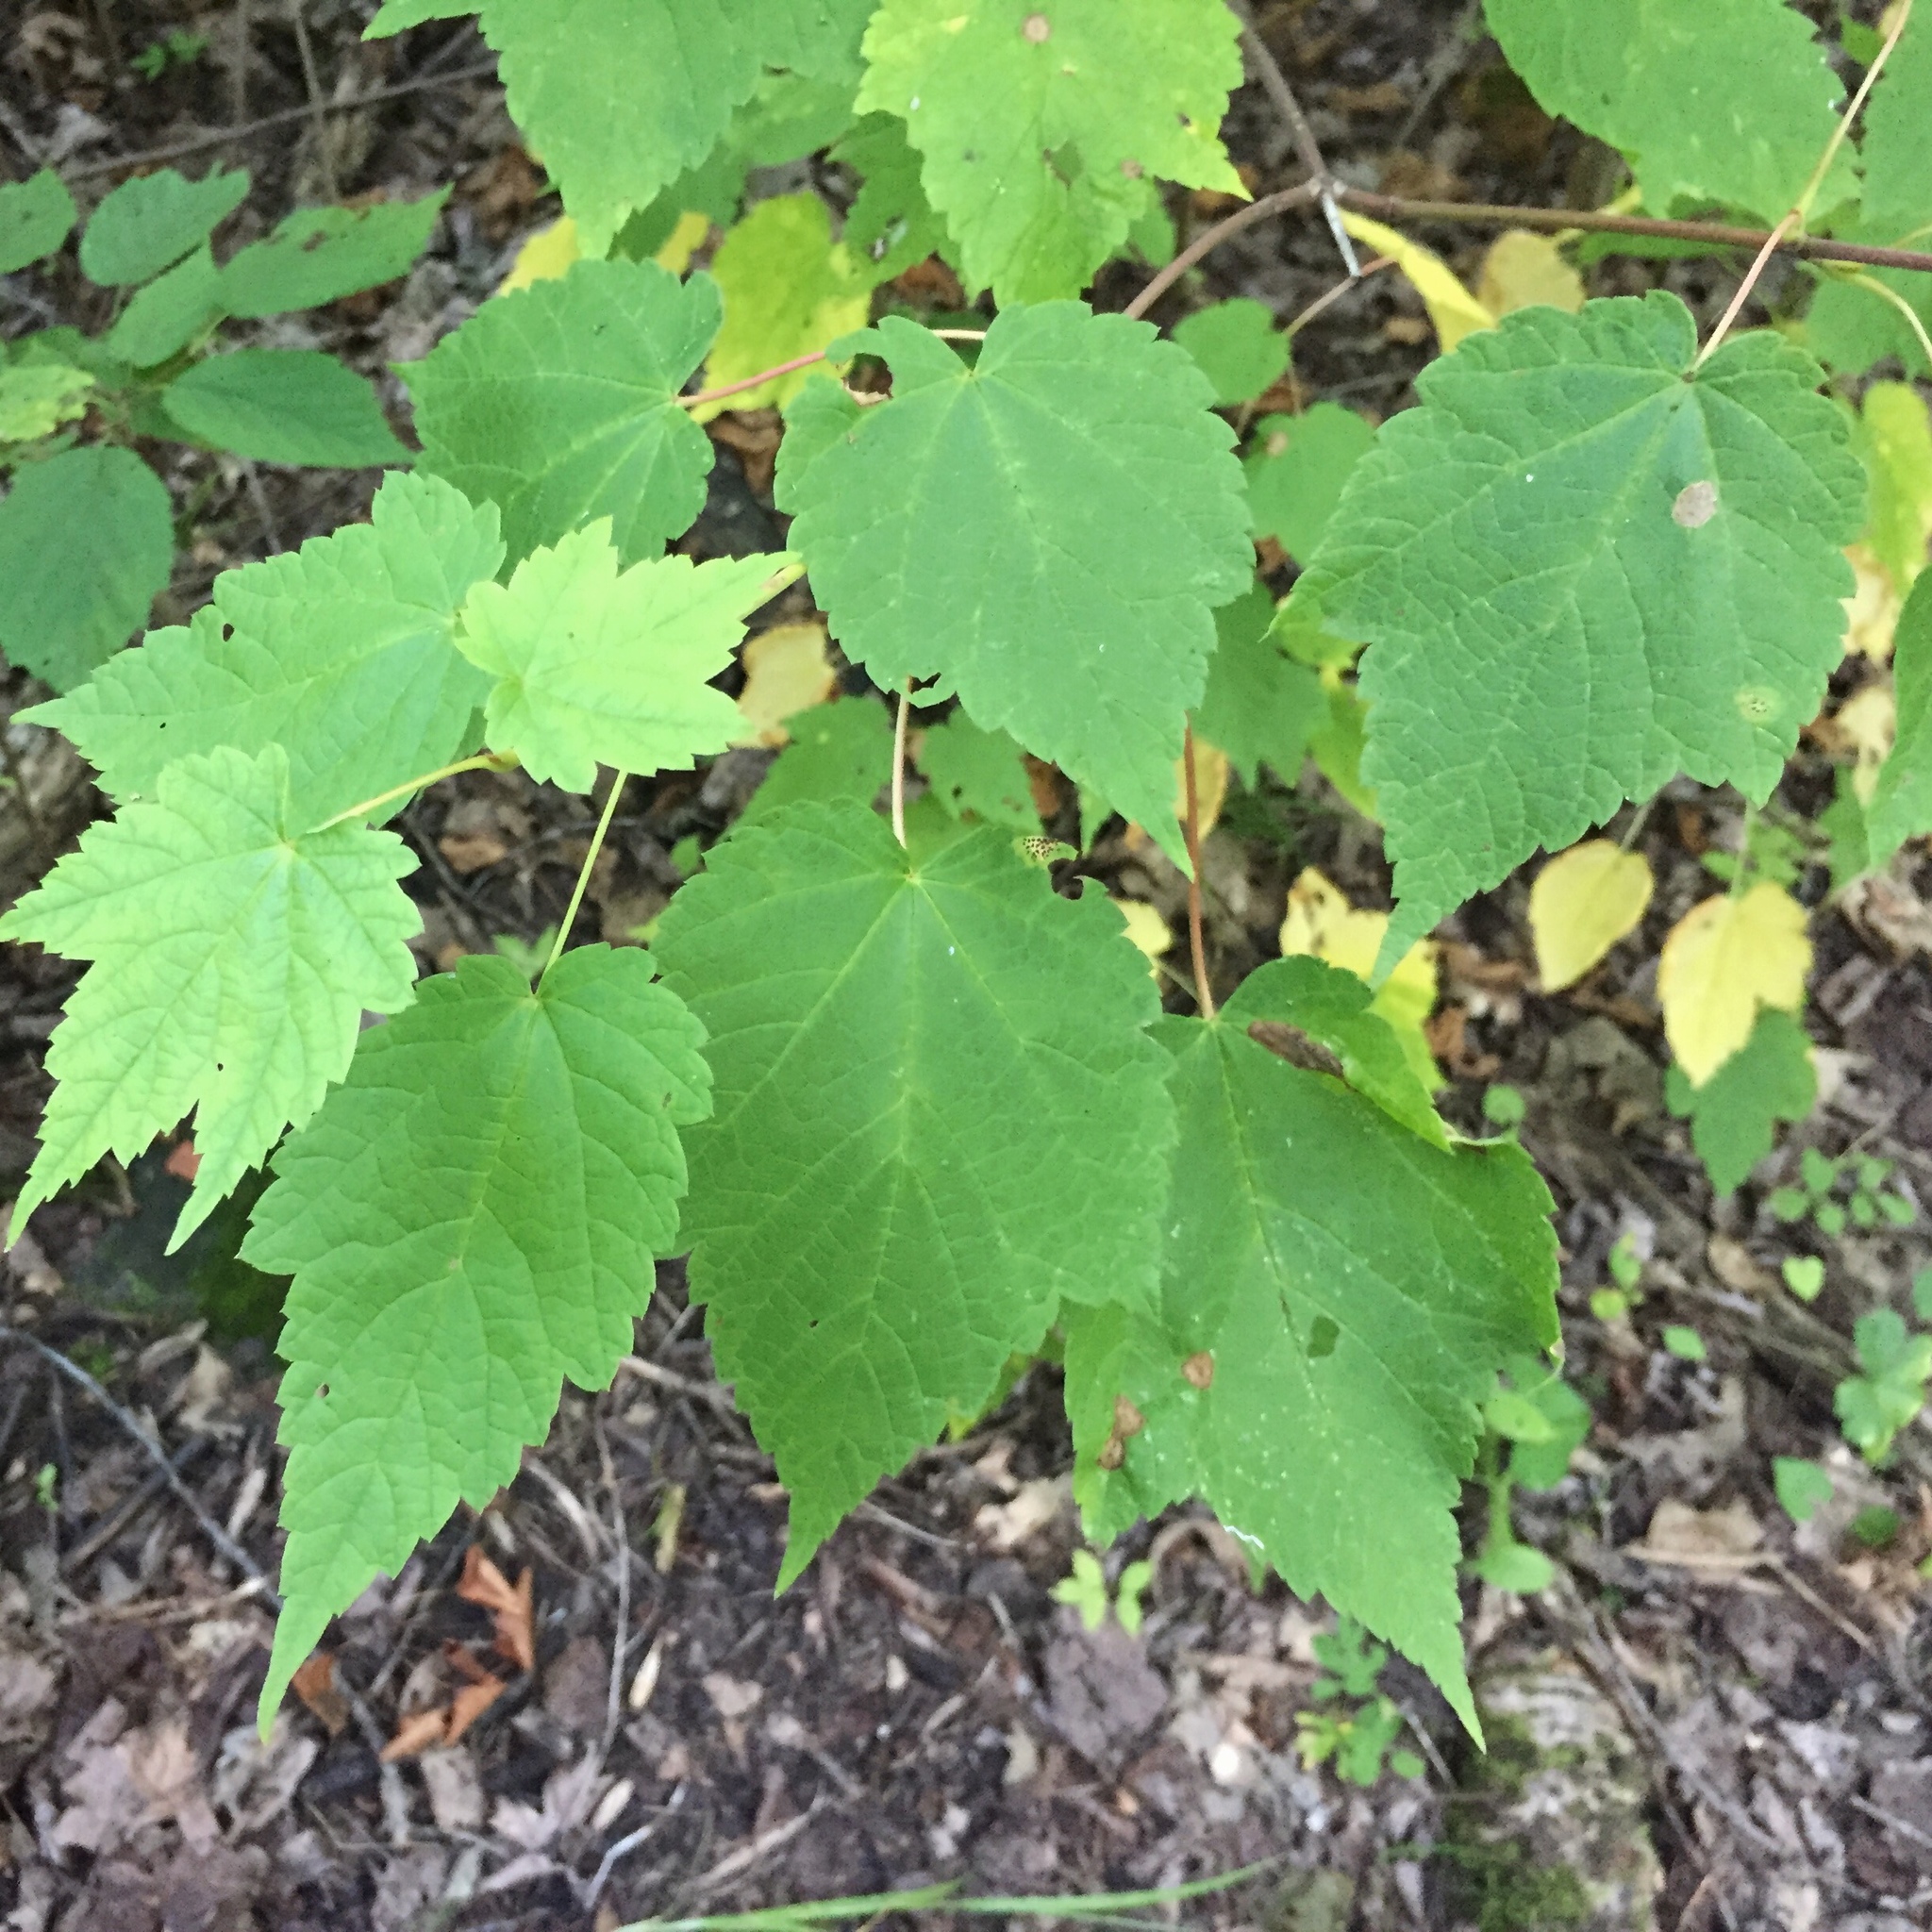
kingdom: Plantae
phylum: Tracheophyta
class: Magnoliopsida
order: Sapindales
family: Sapindaceae
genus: Acer
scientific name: Acer spicatum
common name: Mountain maple
